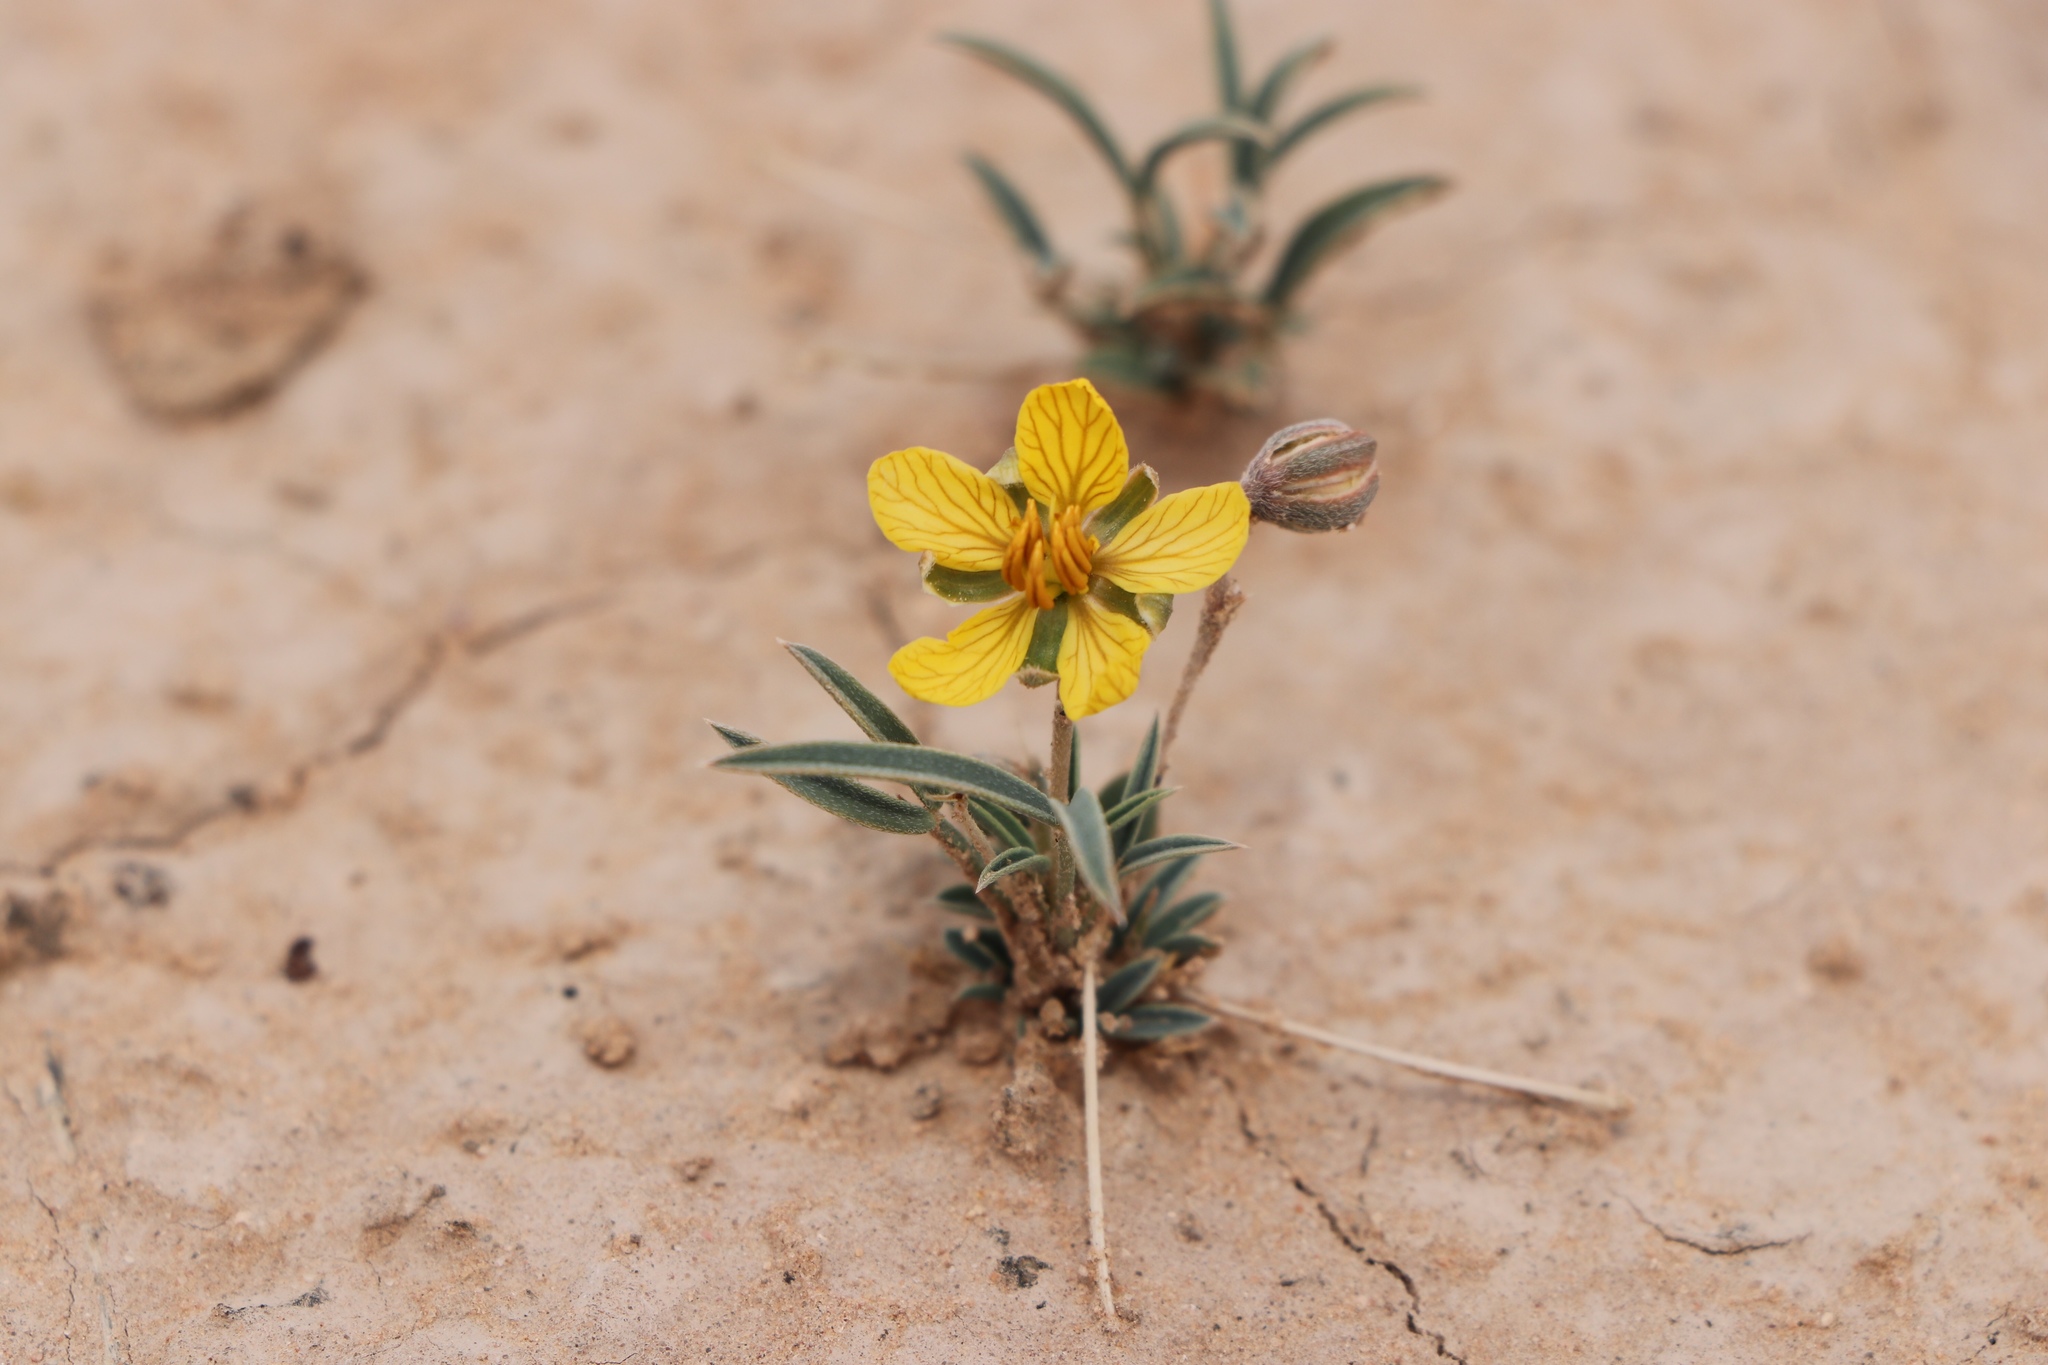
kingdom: Plantae
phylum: Tracheophyta
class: Magnoliopsida
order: Fabales
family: Fabaceae
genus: Senna
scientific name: Senna pumilio
